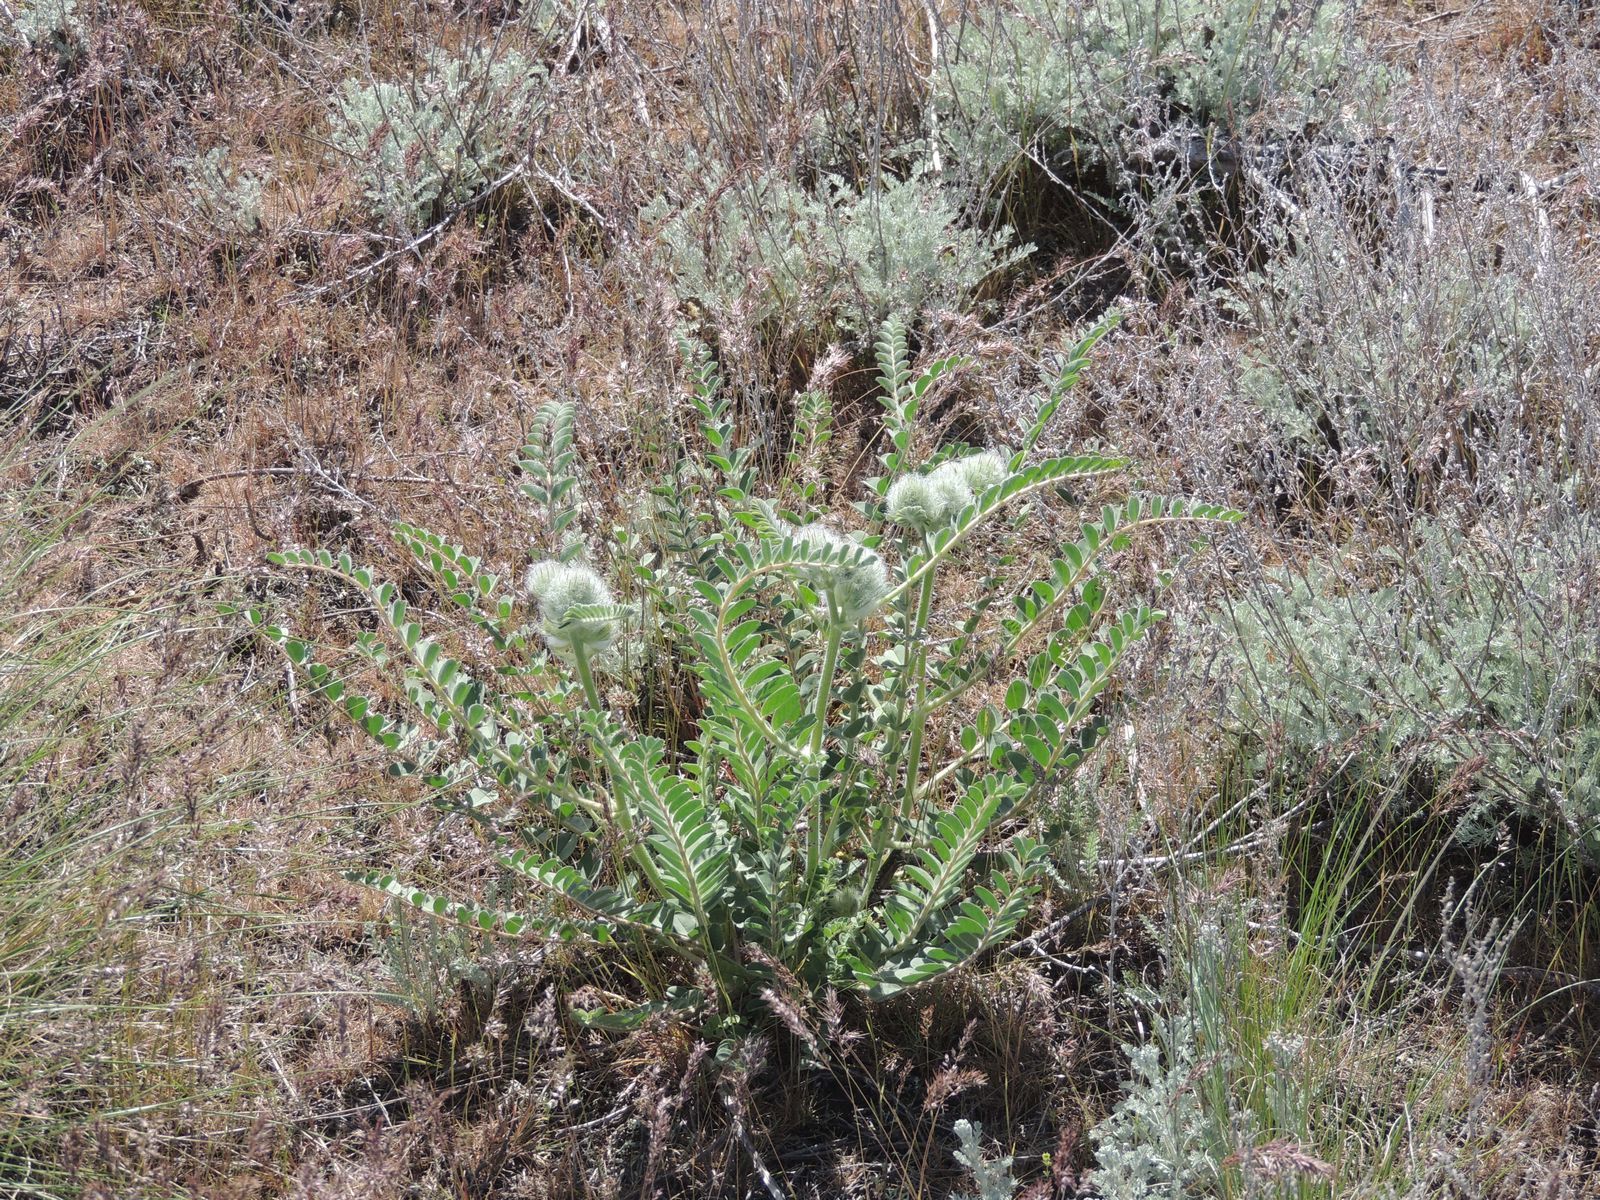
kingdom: Plantae
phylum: Tracheophyta
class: Magnoliopsida
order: Fabales
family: Fabaceae
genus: Astragalus
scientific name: Astragalus vulpinus
